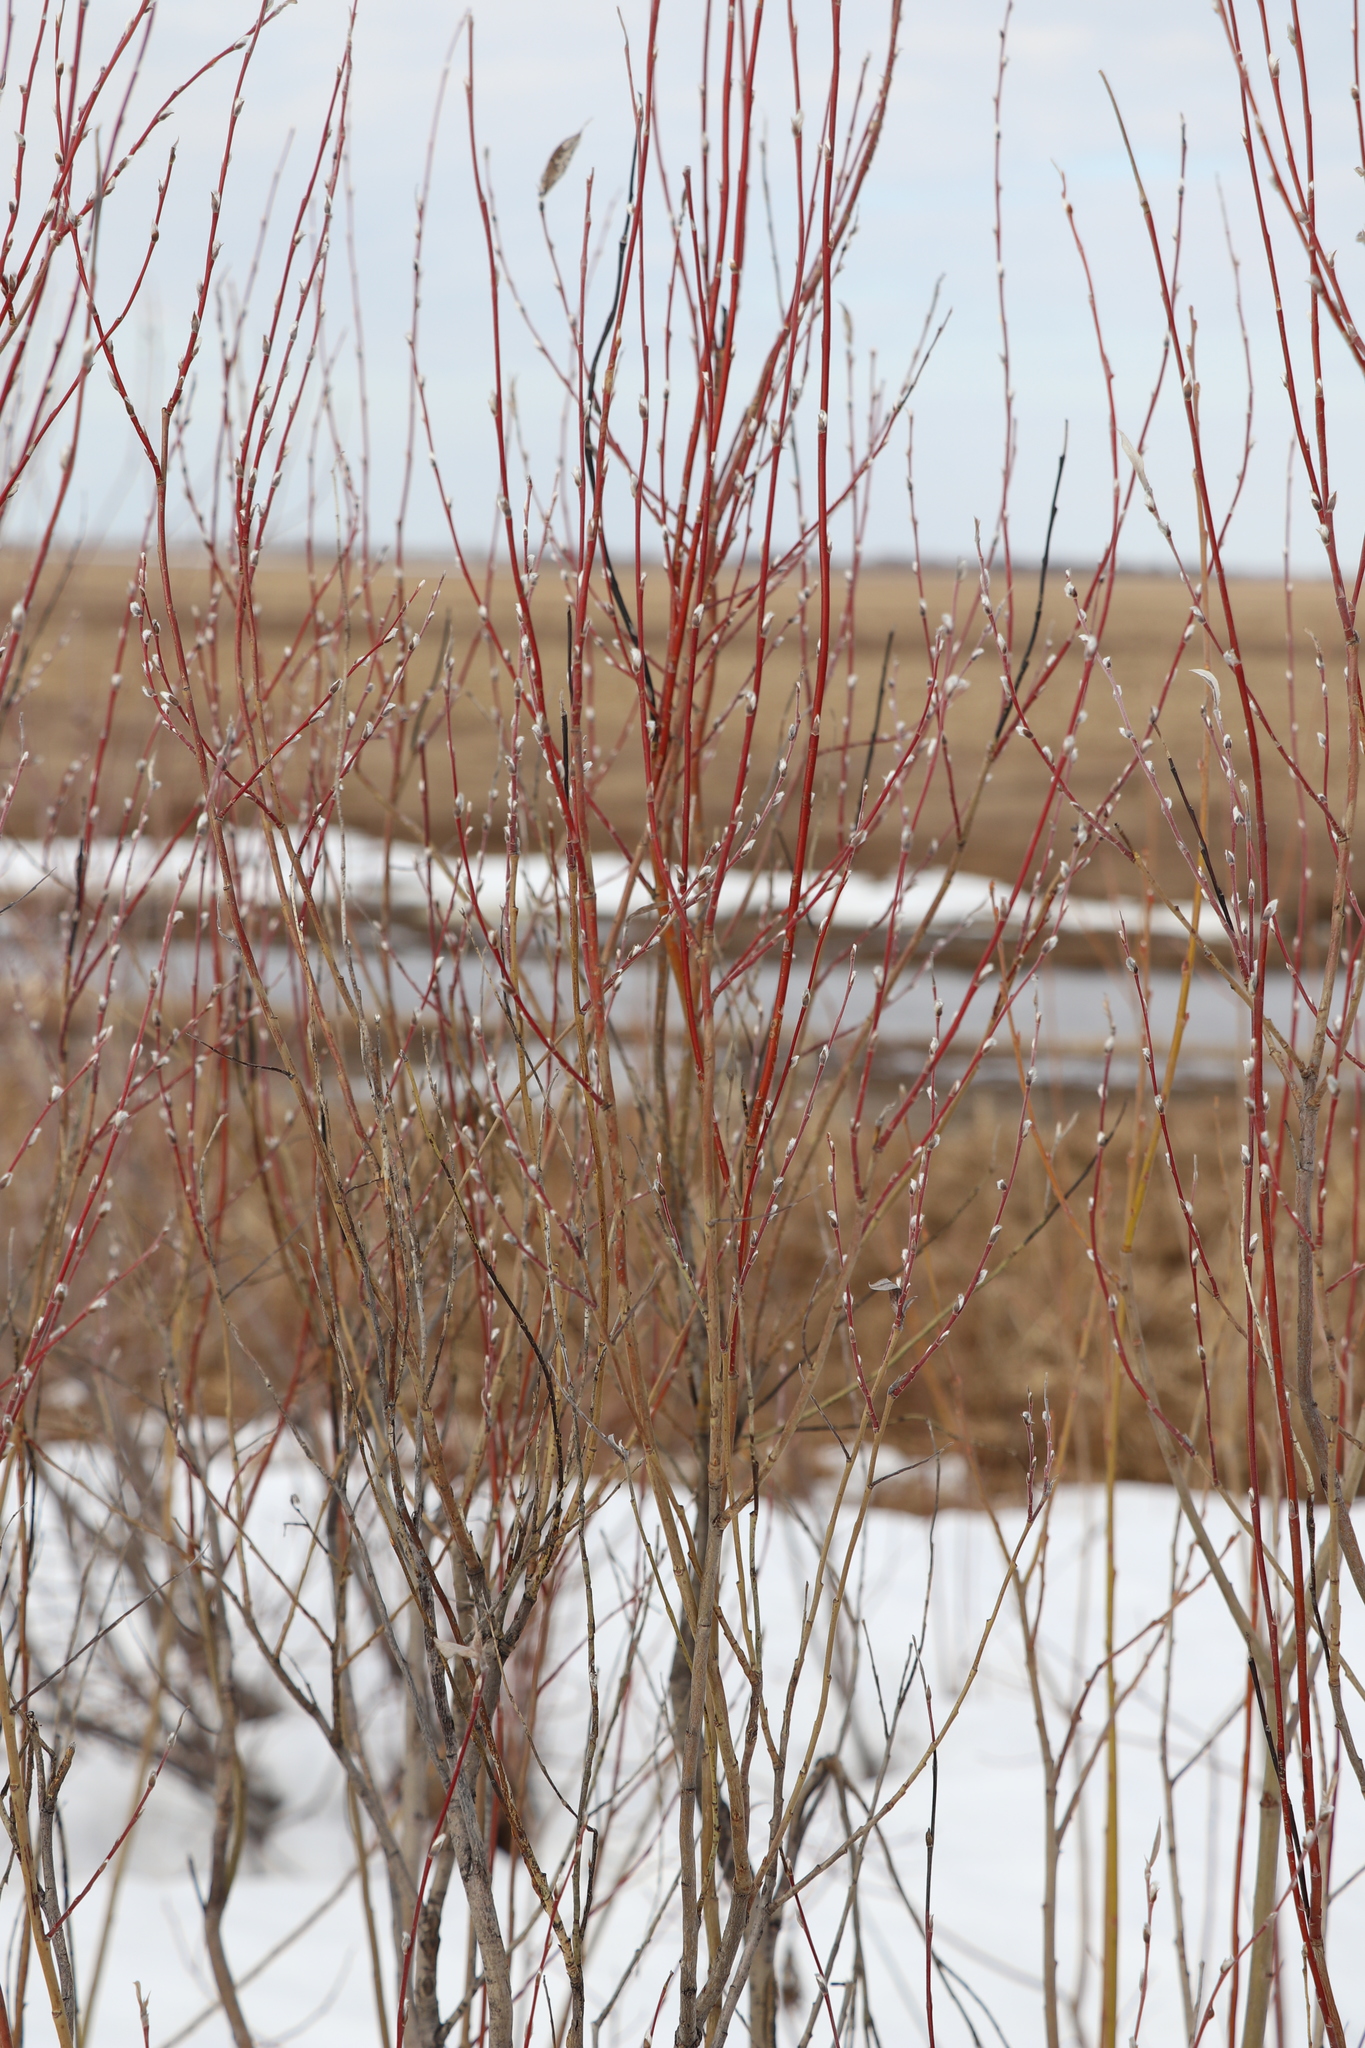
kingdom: Plantae
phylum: Tracheophyta
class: Magnoliopsida
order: Malpighiales
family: Salicaceae
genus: Salix
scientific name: Salix rosmarinifolia
